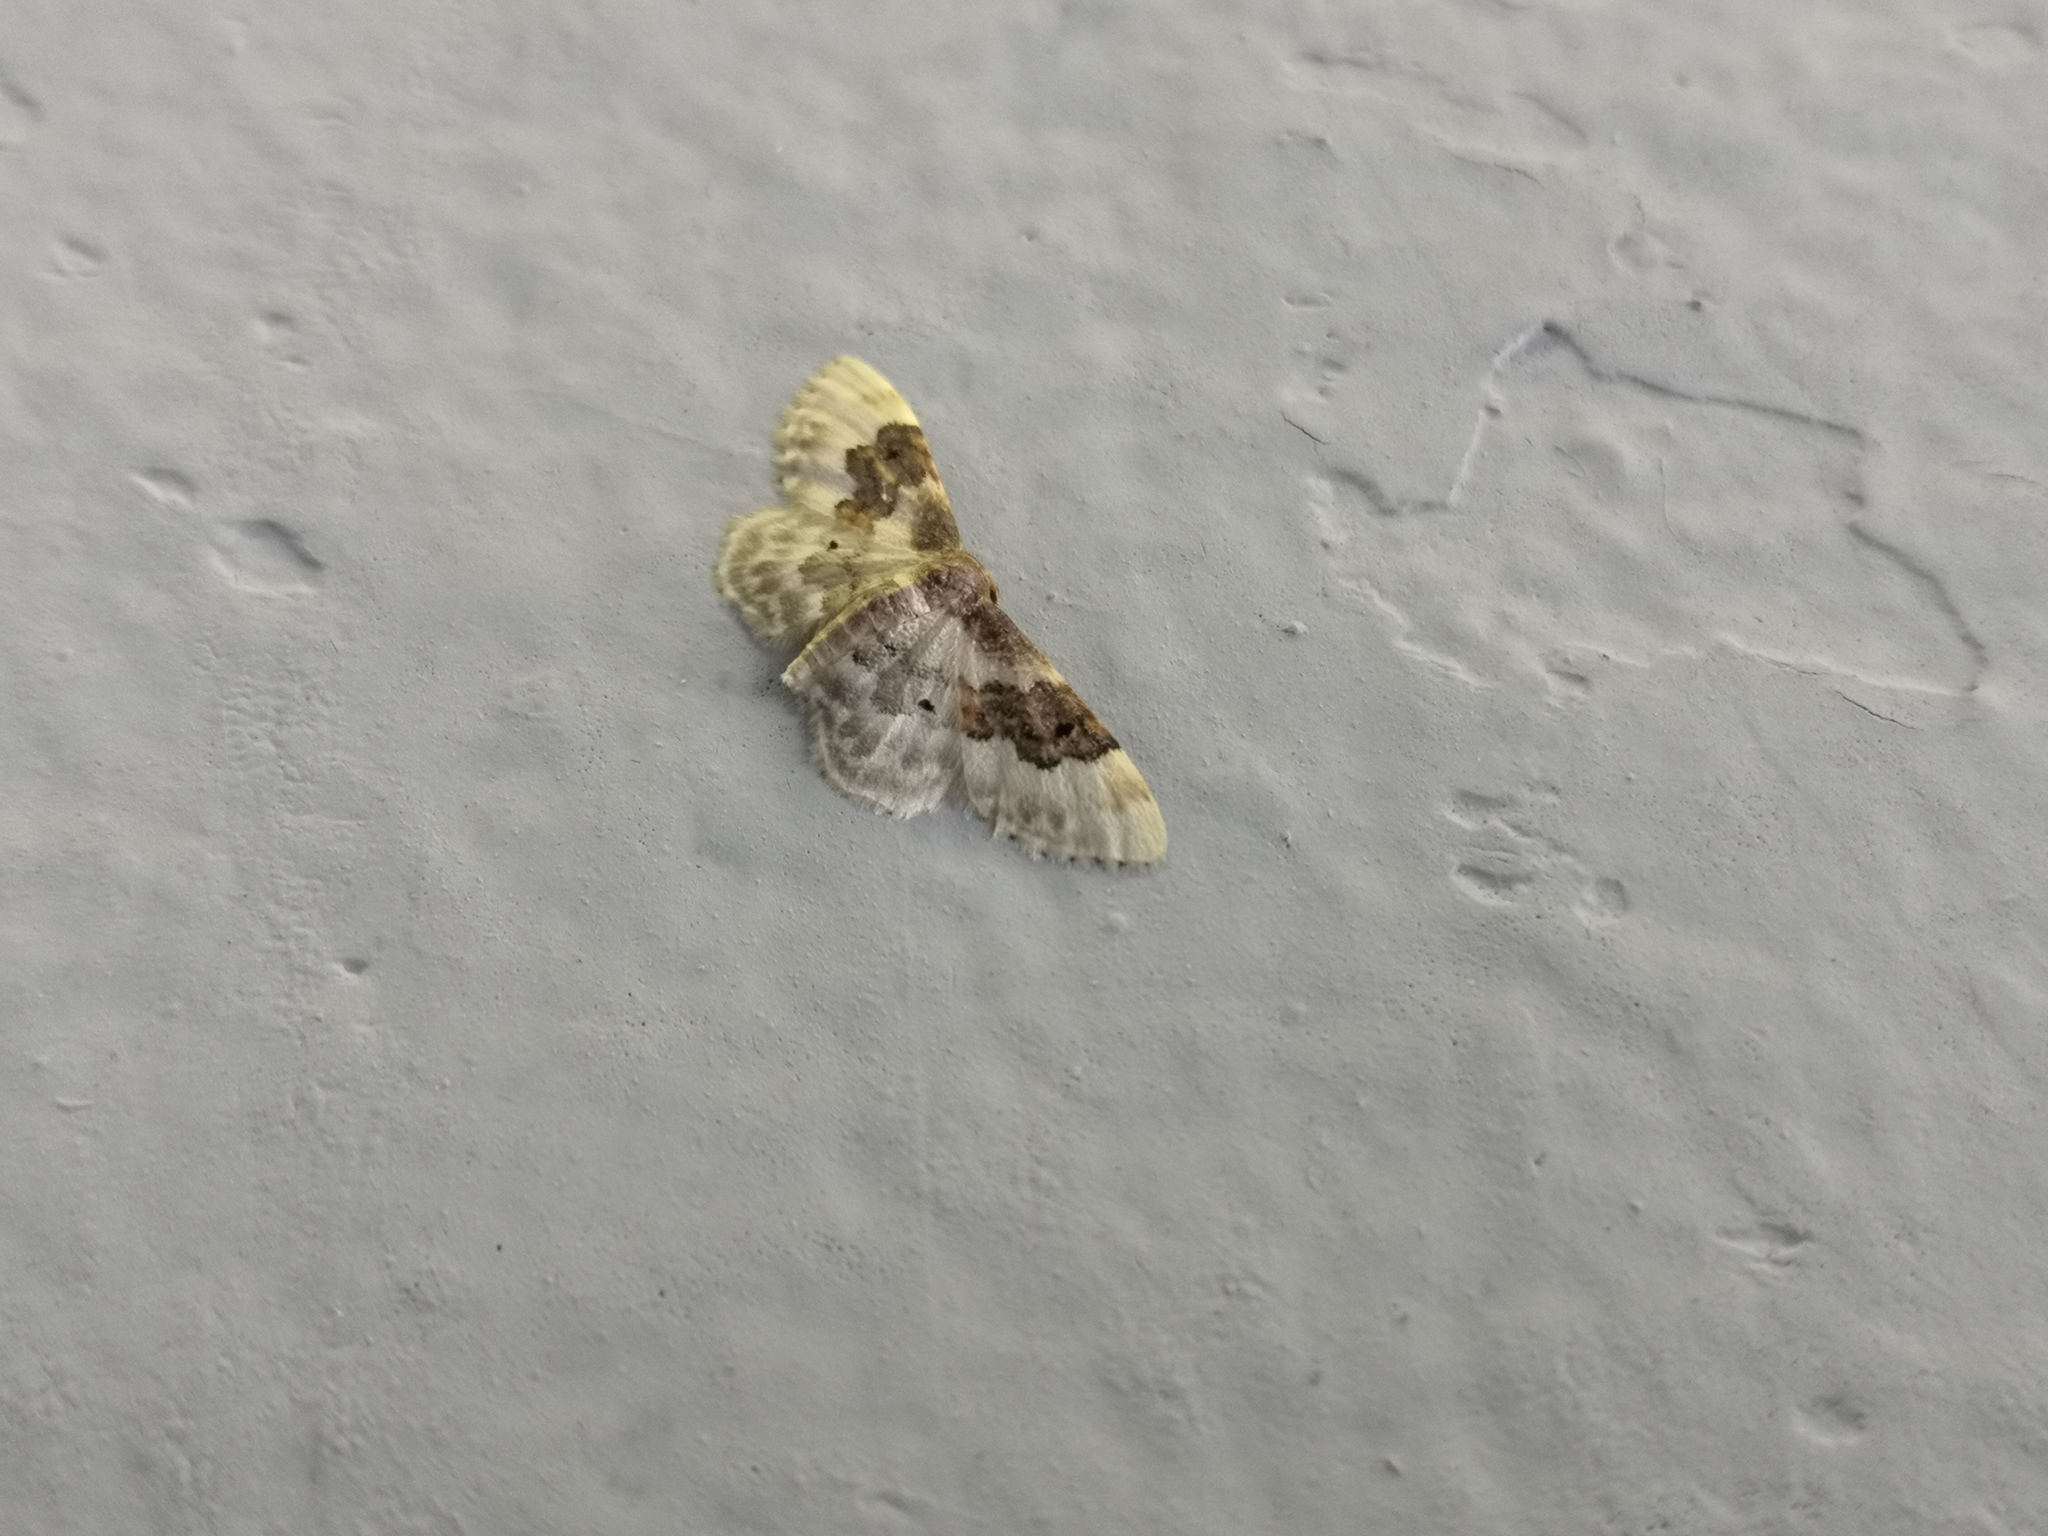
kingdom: Animalia
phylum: Arthropoda
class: Insecta
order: Lepidoptera
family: Geometridae
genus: Idaea
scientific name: Idaea rusticata
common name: Least carpet
